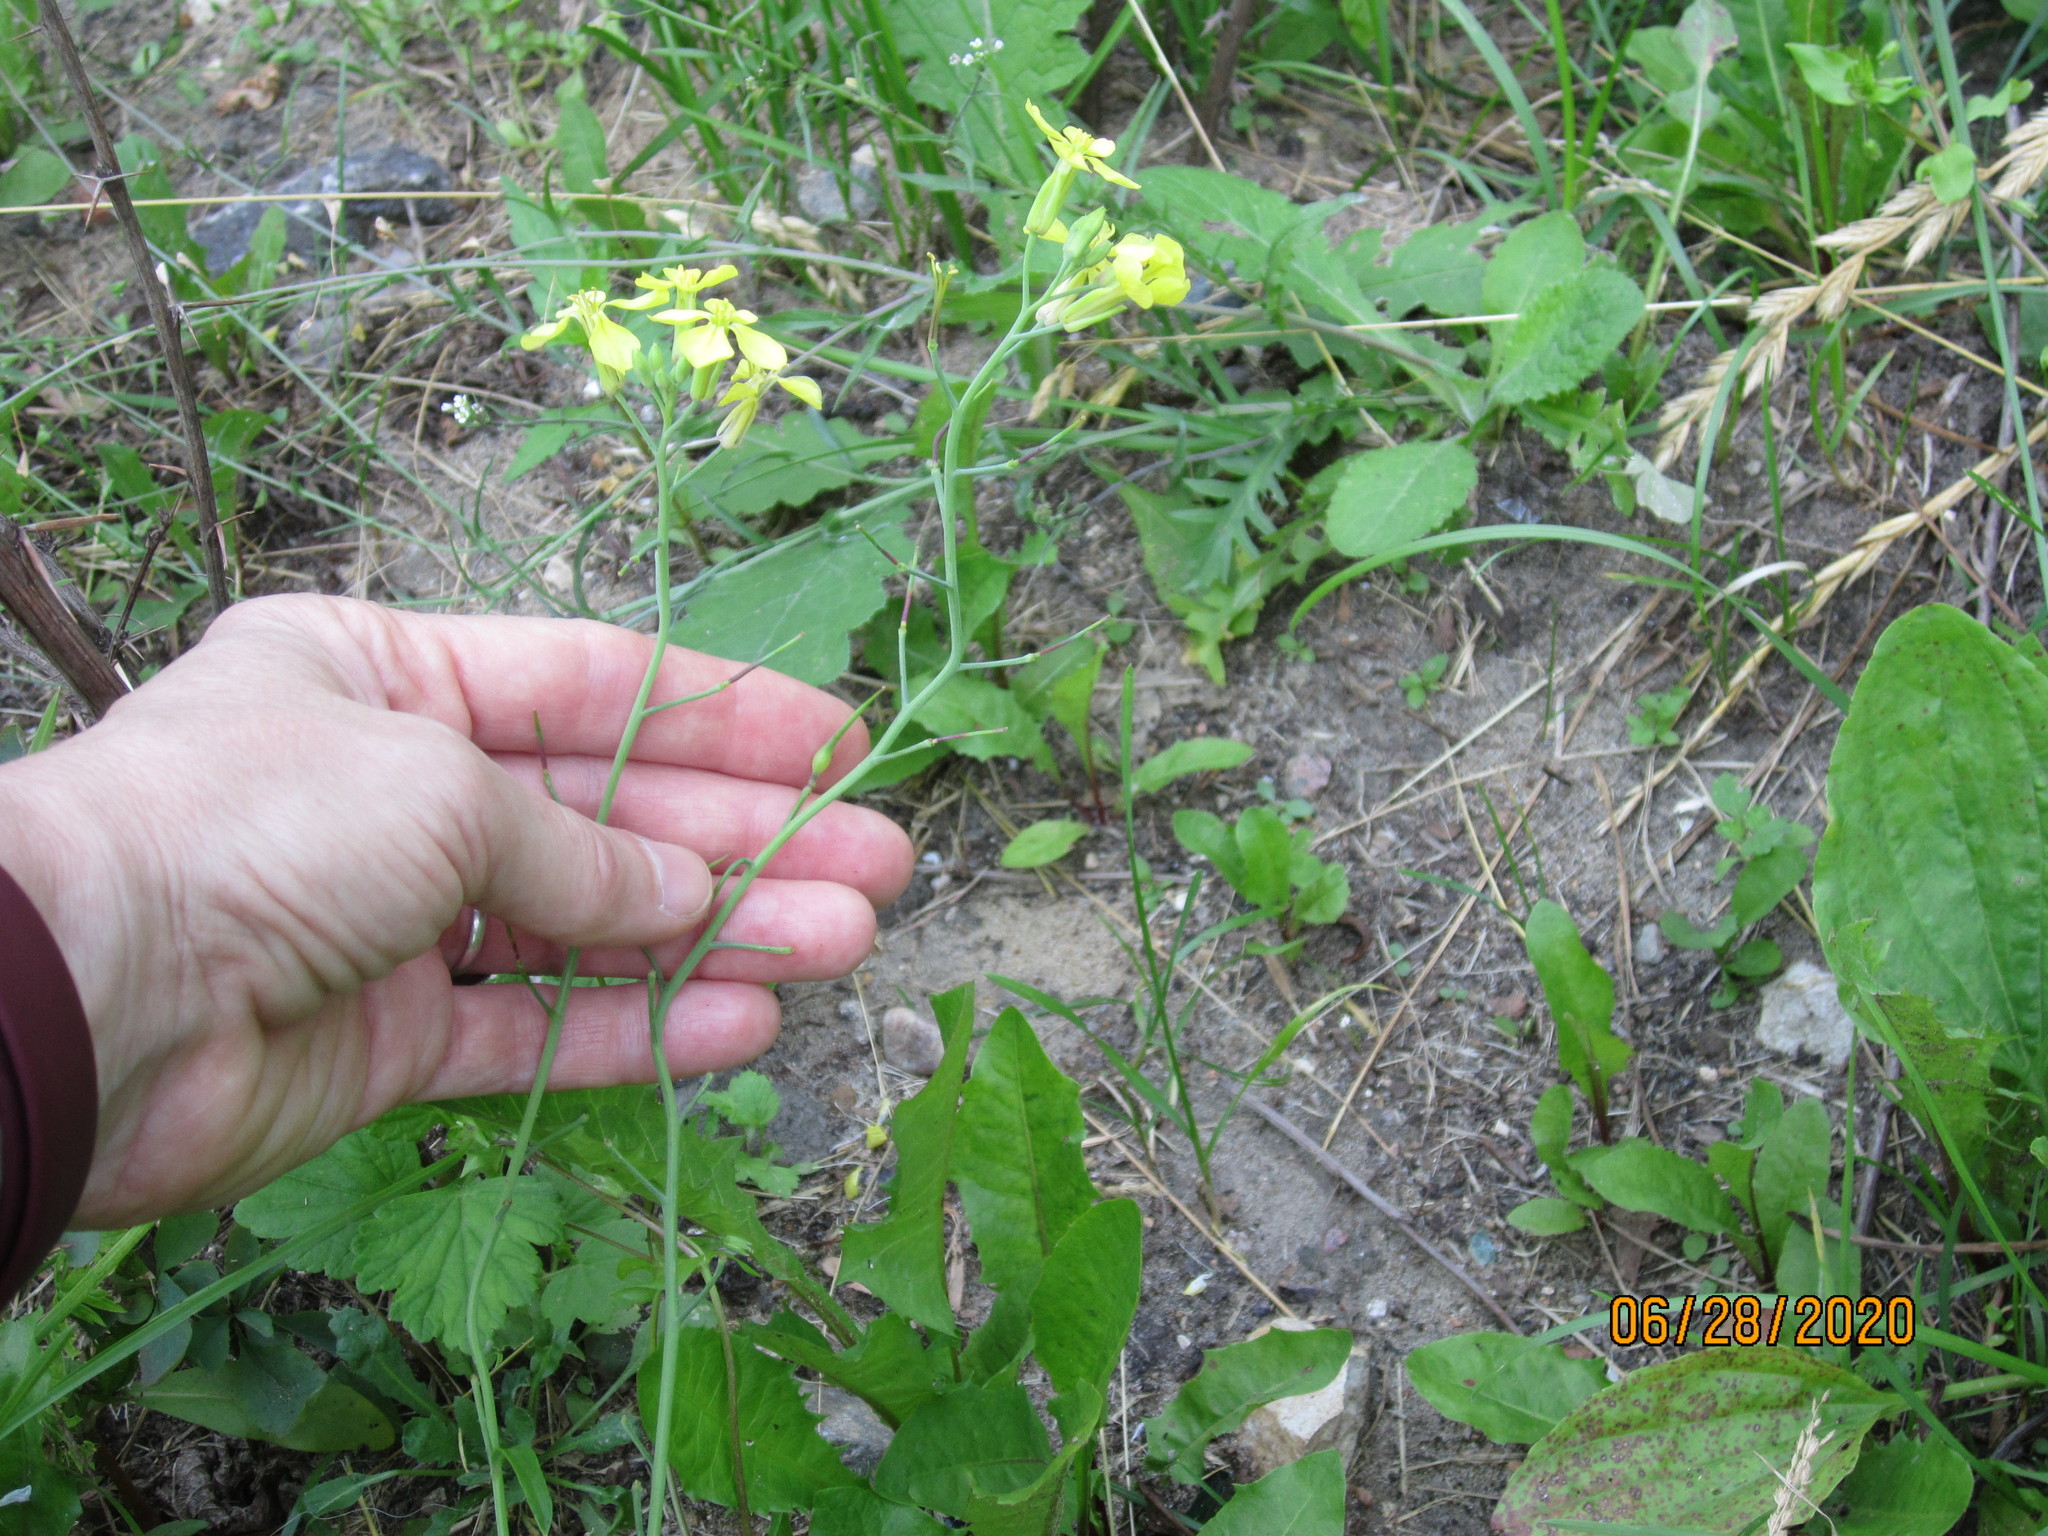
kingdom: Plantae
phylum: Tracheophyta
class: Magnoliopsida
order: Brassicales
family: Brassicaceae
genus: Raphanus
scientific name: Raphanus raphanistrum
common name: Wild radish
